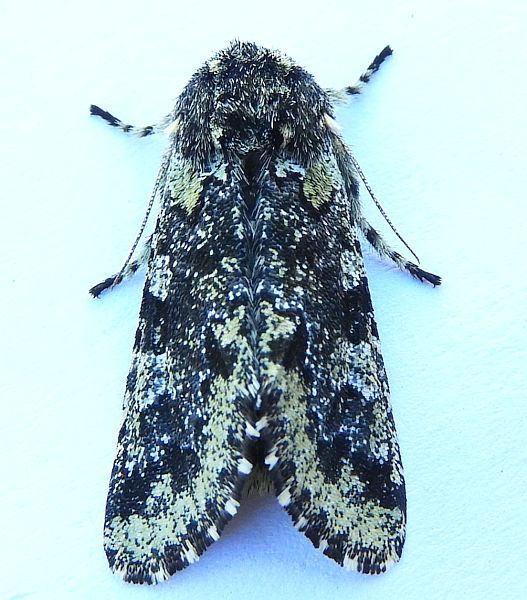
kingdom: Animalia
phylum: Arthropoda
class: Insecta
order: Lepidoptera
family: Noctuidae
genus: Feralia
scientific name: Feralia major
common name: Major sallow
